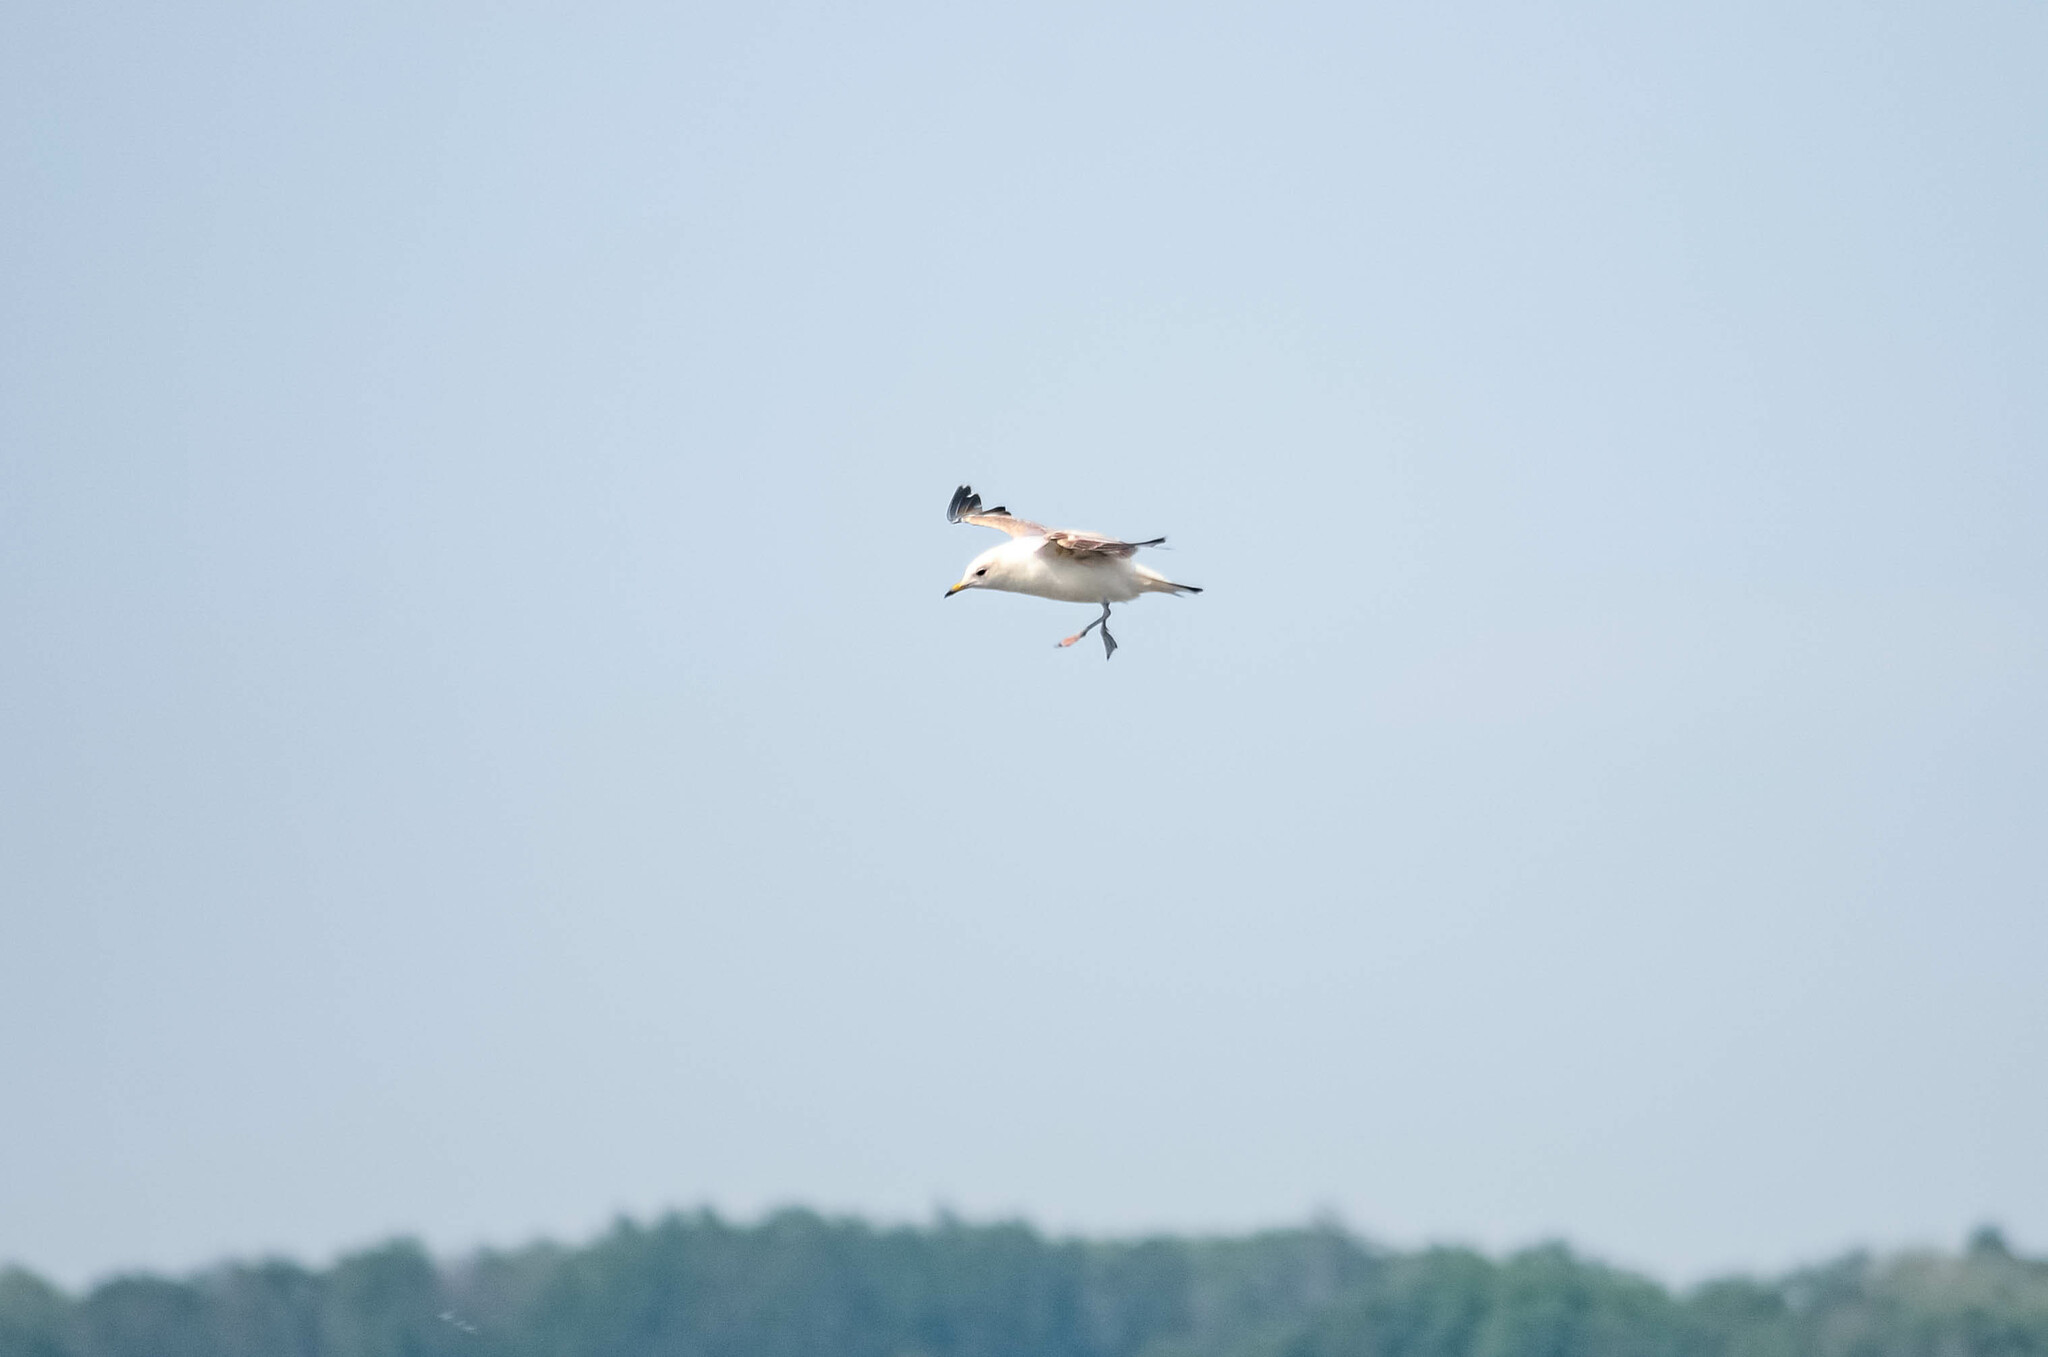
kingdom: Animalia
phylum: Chordata
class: Aves
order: Charadriiformes
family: Laridae
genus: Larus
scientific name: Larus canus
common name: Mew gull
